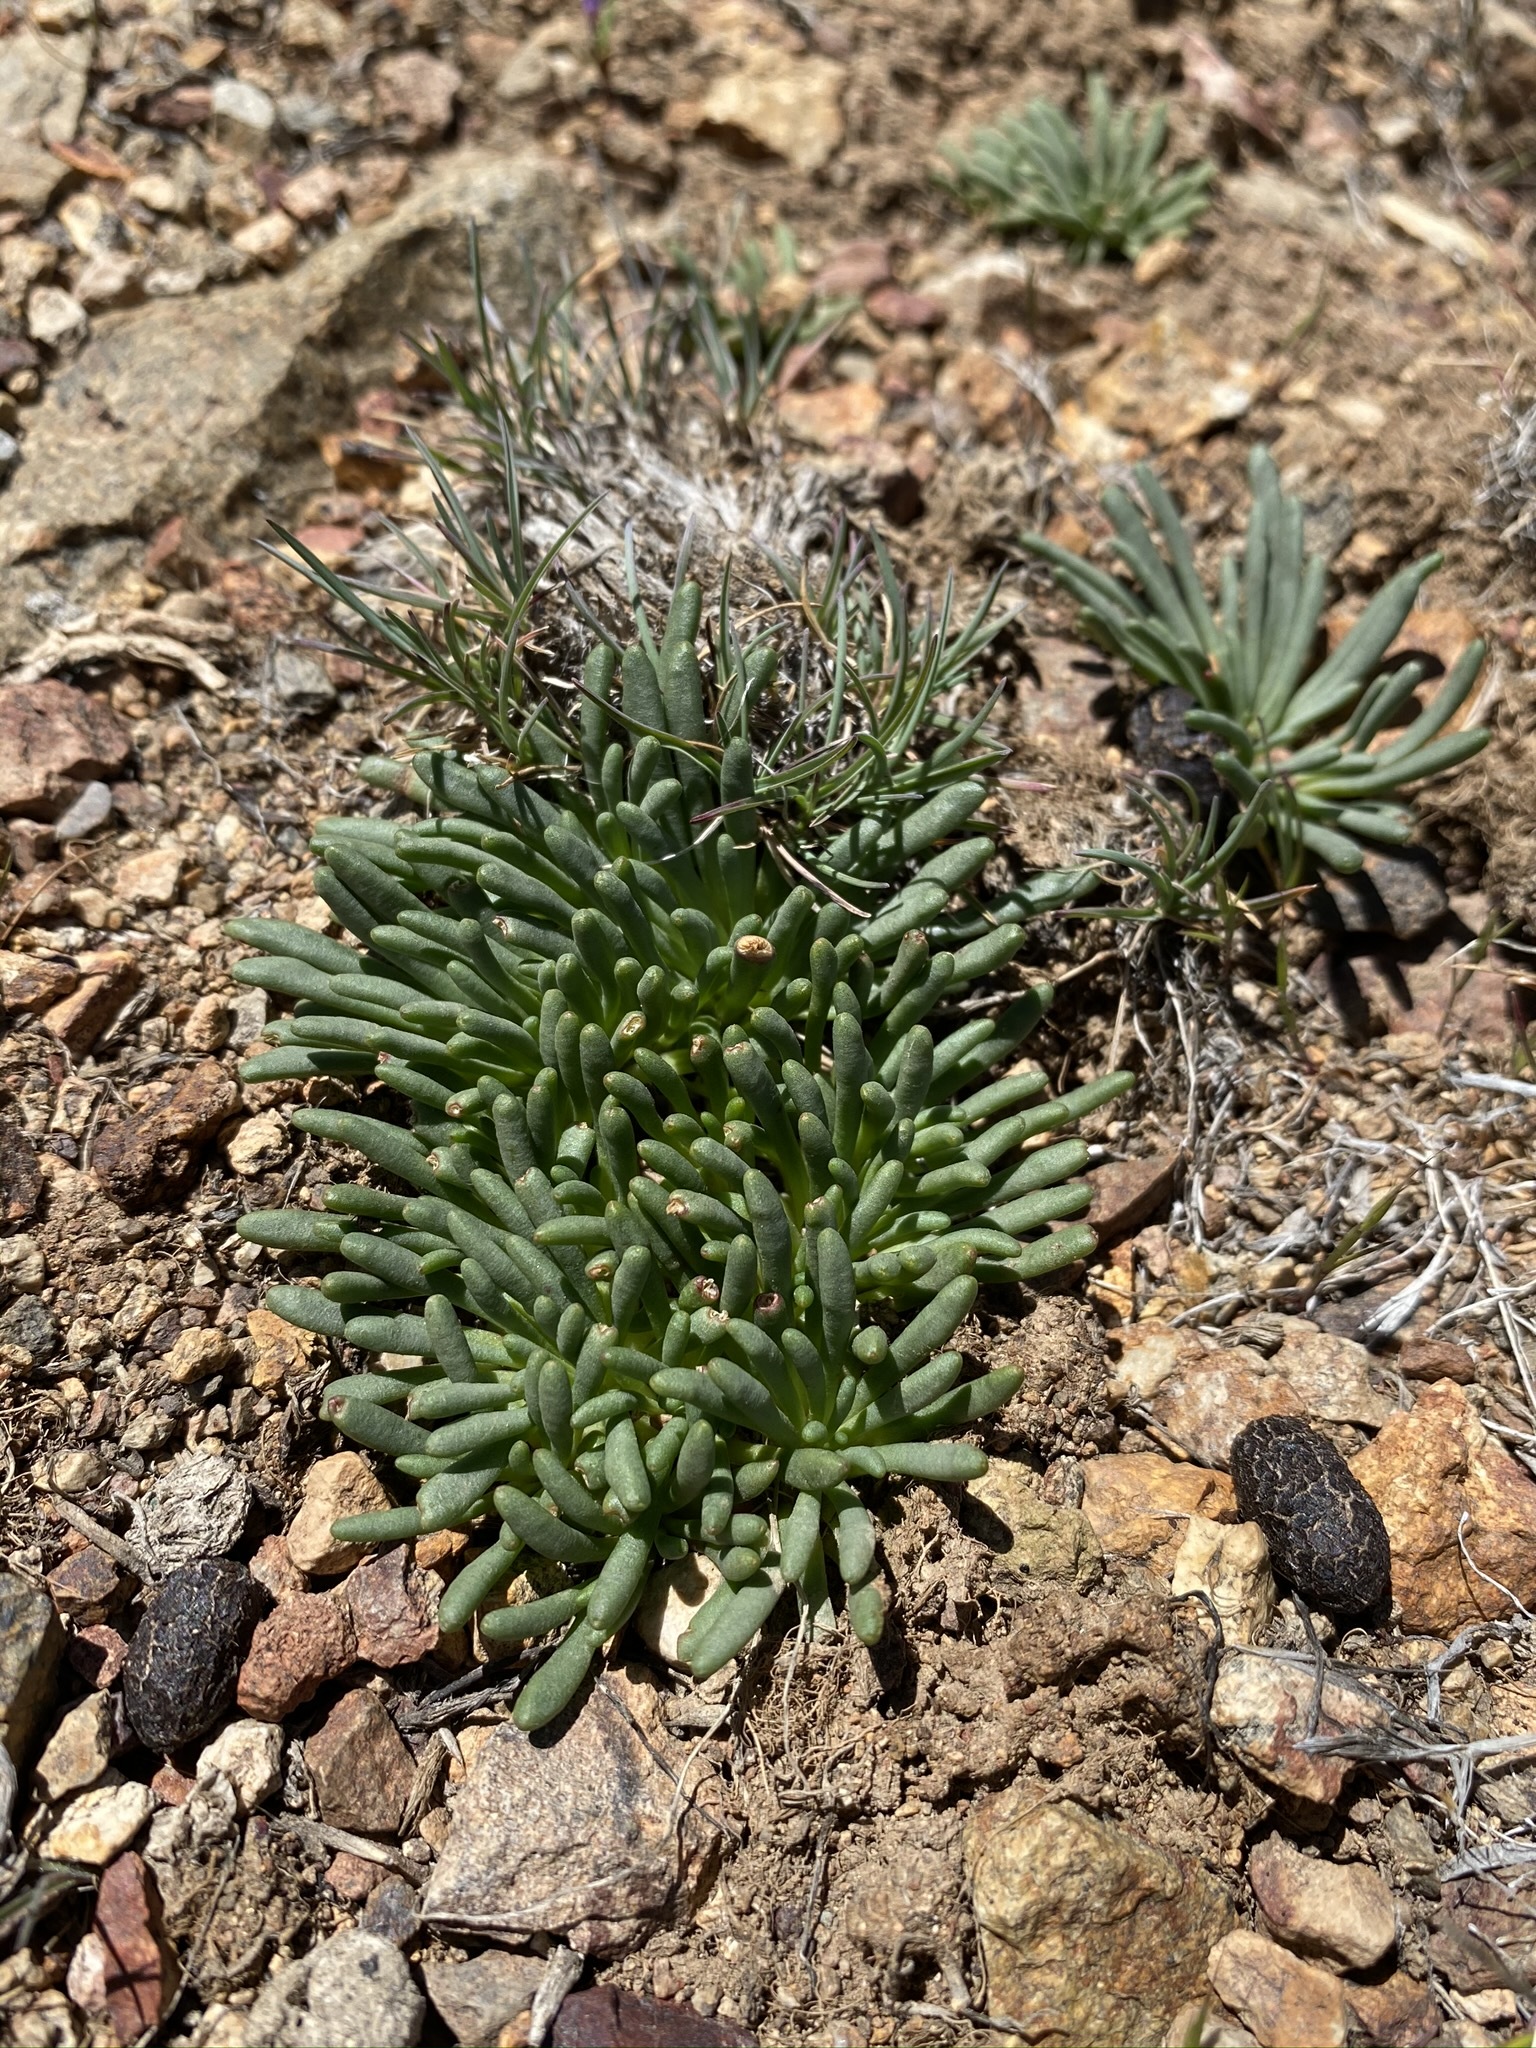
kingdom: Plantae
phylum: Tracheophyta
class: Magnoliopsida
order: Caryophyllales
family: Montiaceae
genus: Lewisia
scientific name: Lewisia rediviva
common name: Bitter-root
